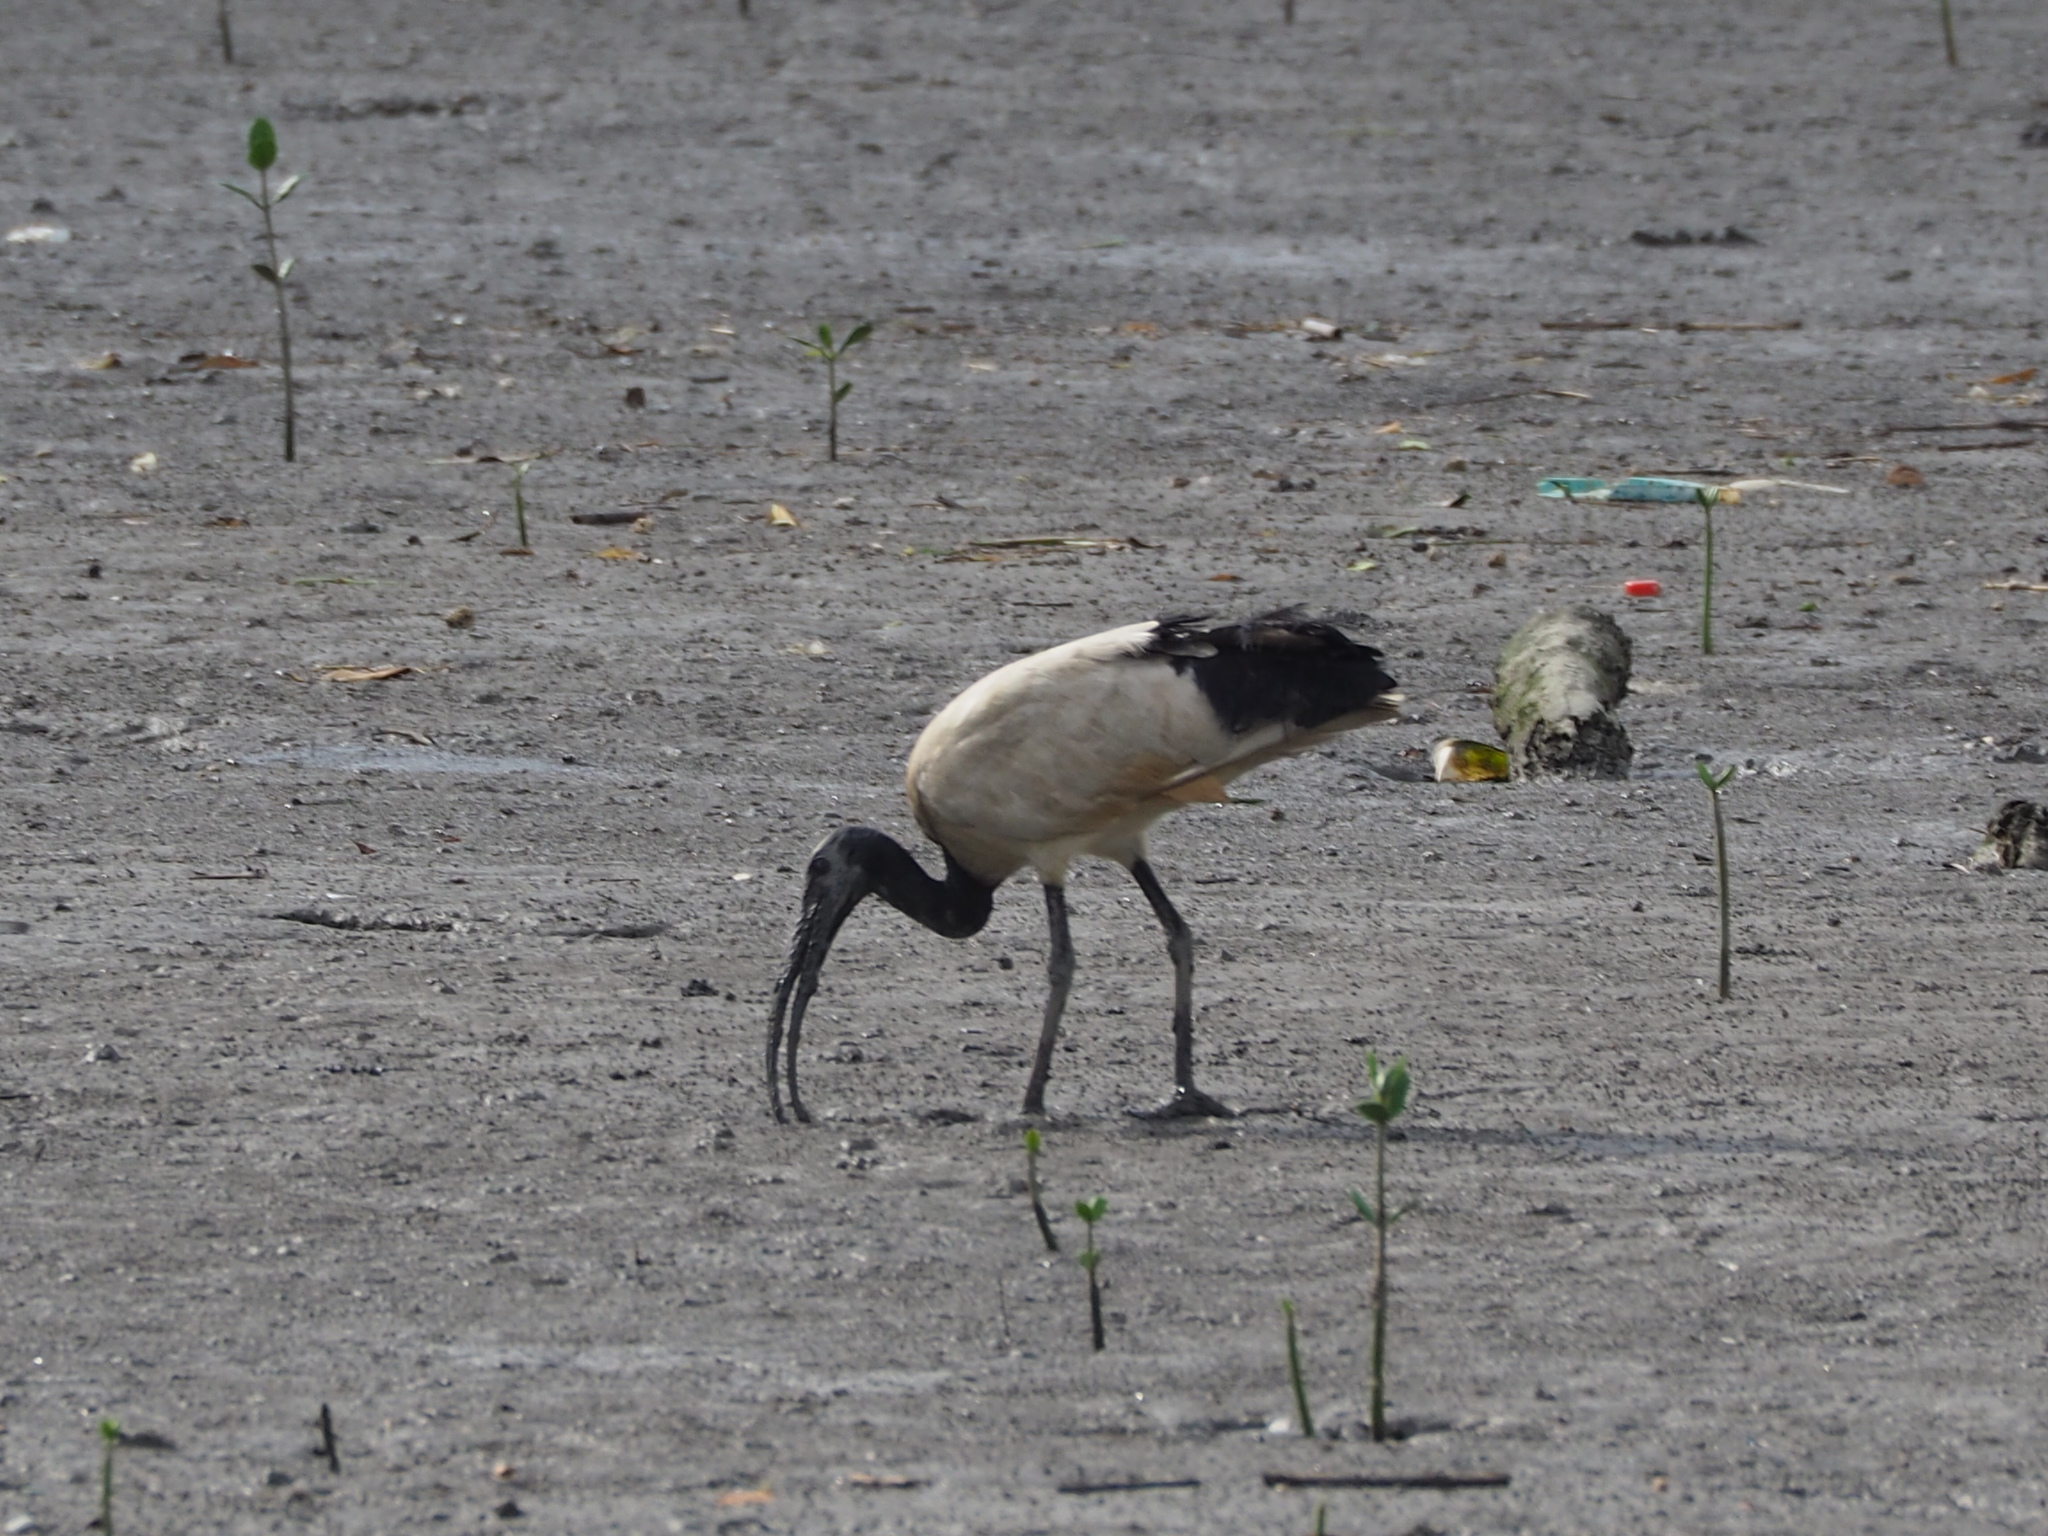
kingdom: Animalia
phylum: Chordata
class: Aves
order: Pelecaniformes
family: Threskiornithidae
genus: Threskiornis
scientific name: Threskiornis aethiopicus
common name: Sacred ibis
